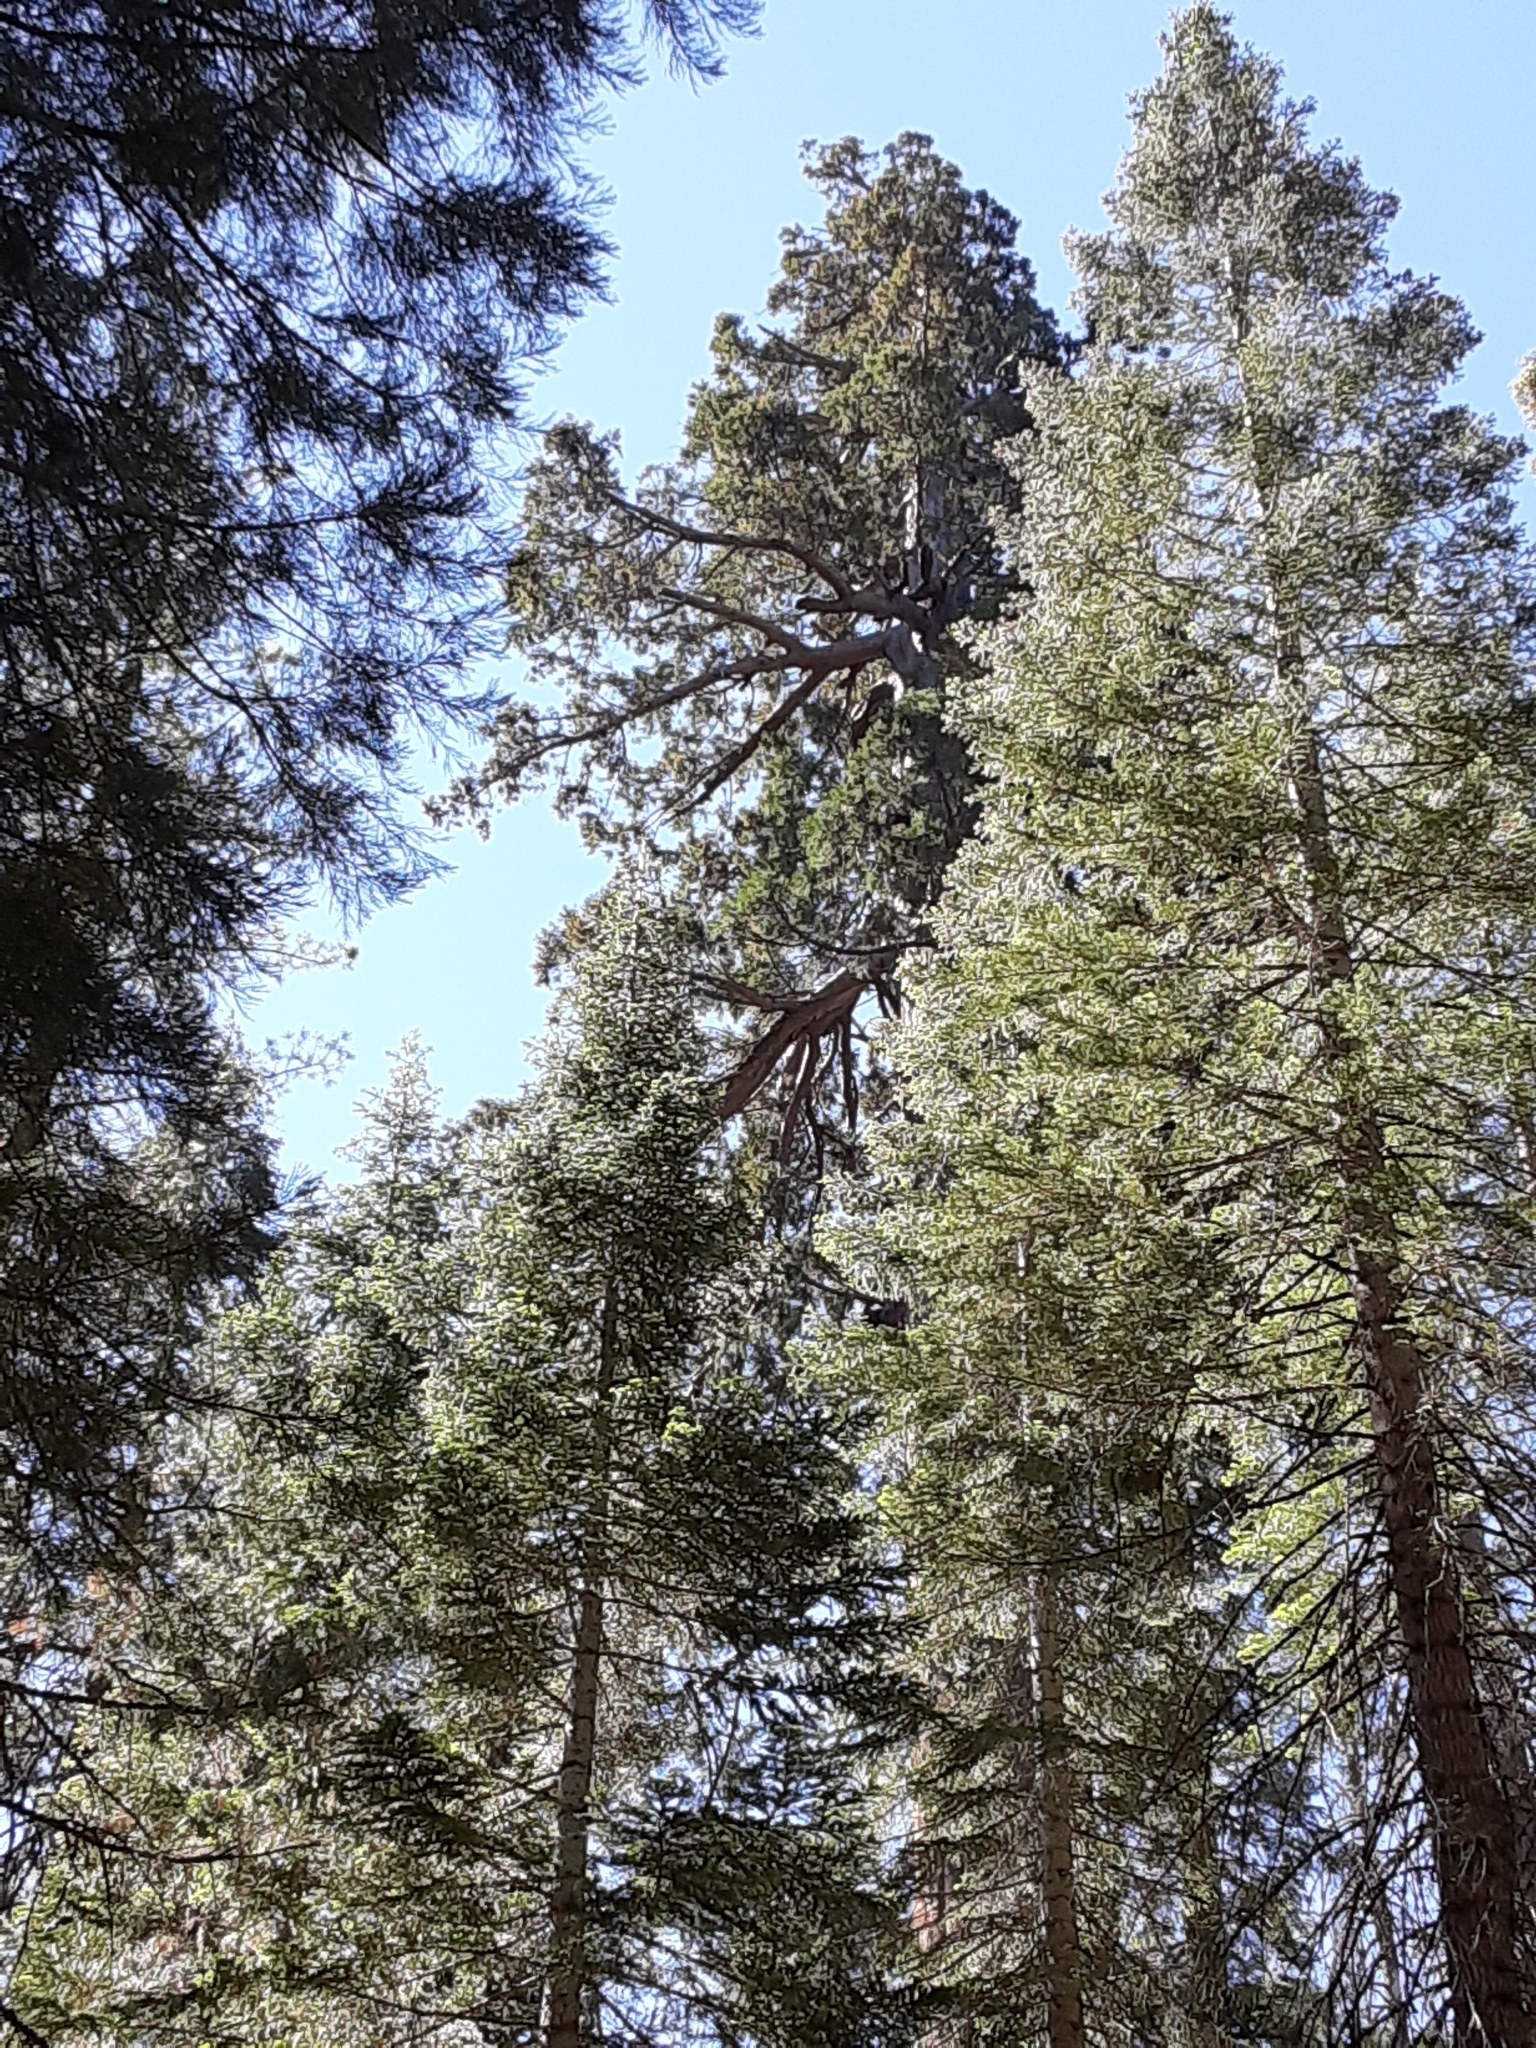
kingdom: Plantae
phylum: Tracheophyta
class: Pinopsida
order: Pinales
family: Cupressaceae
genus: Sequoiadendron
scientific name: Sequoiadendron giganteum
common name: Wellingtonia
